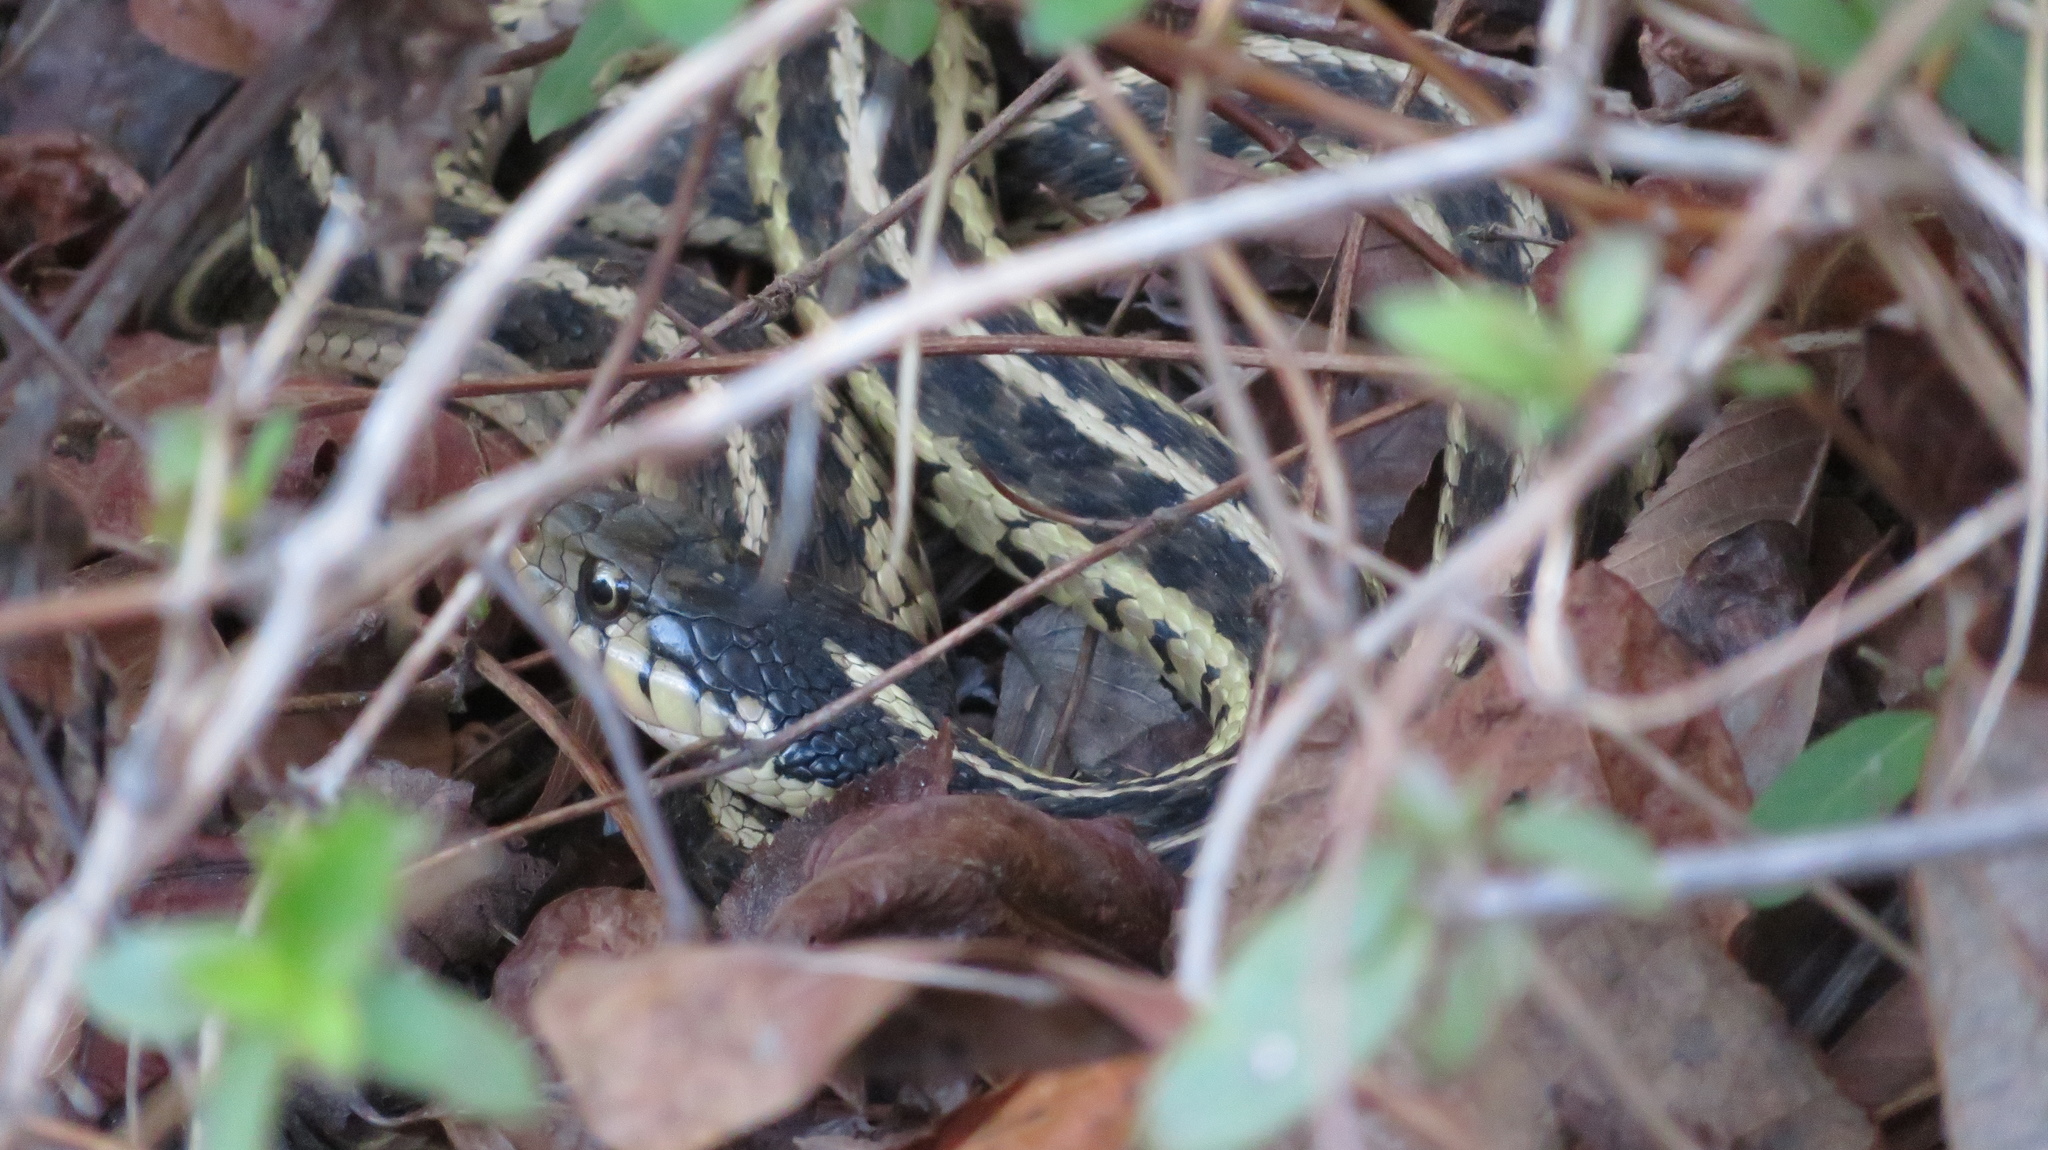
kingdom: Animalia
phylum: Chordata
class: Squamata
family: Colubridae
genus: Thamnophis
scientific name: Thamnophis sirtalis
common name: Common garter snake
